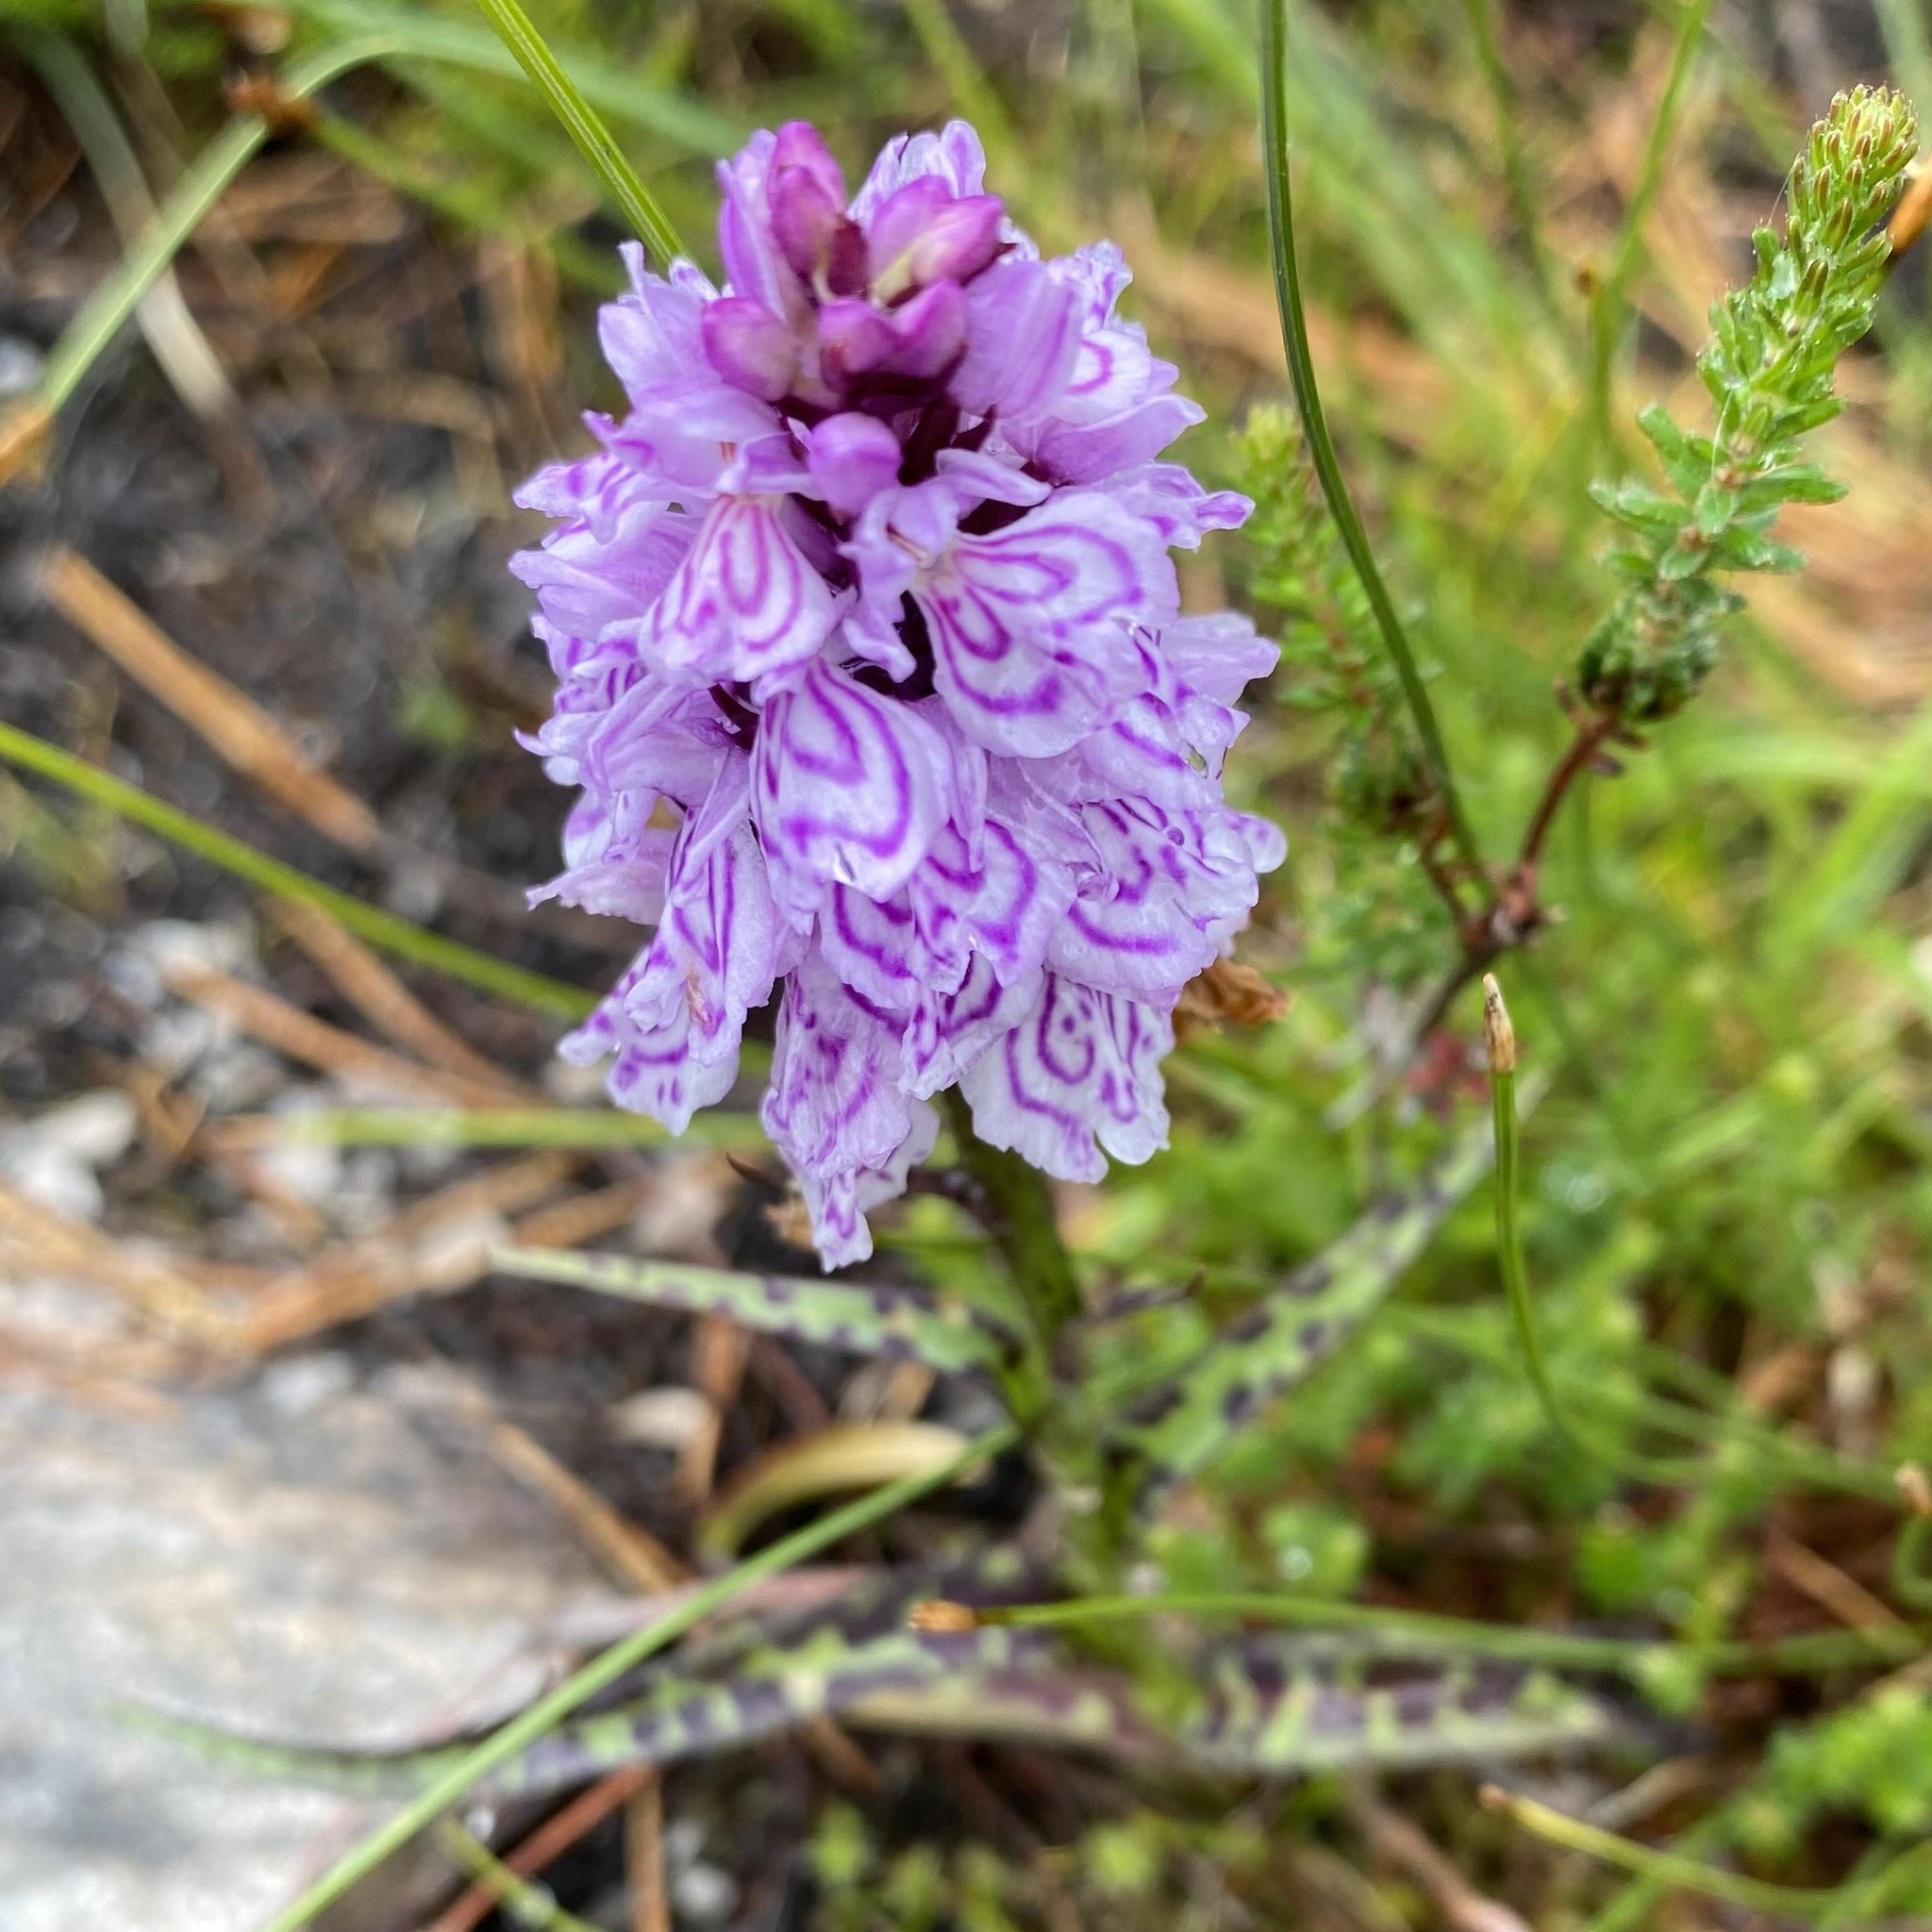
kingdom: Plantae
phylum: Tracheophyta
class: Liliopsida
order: Asparagales
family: Orchidaceae
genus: Dactylorhiza
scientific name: Dactylorhiza maculata
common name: Heath spotted-orchid
